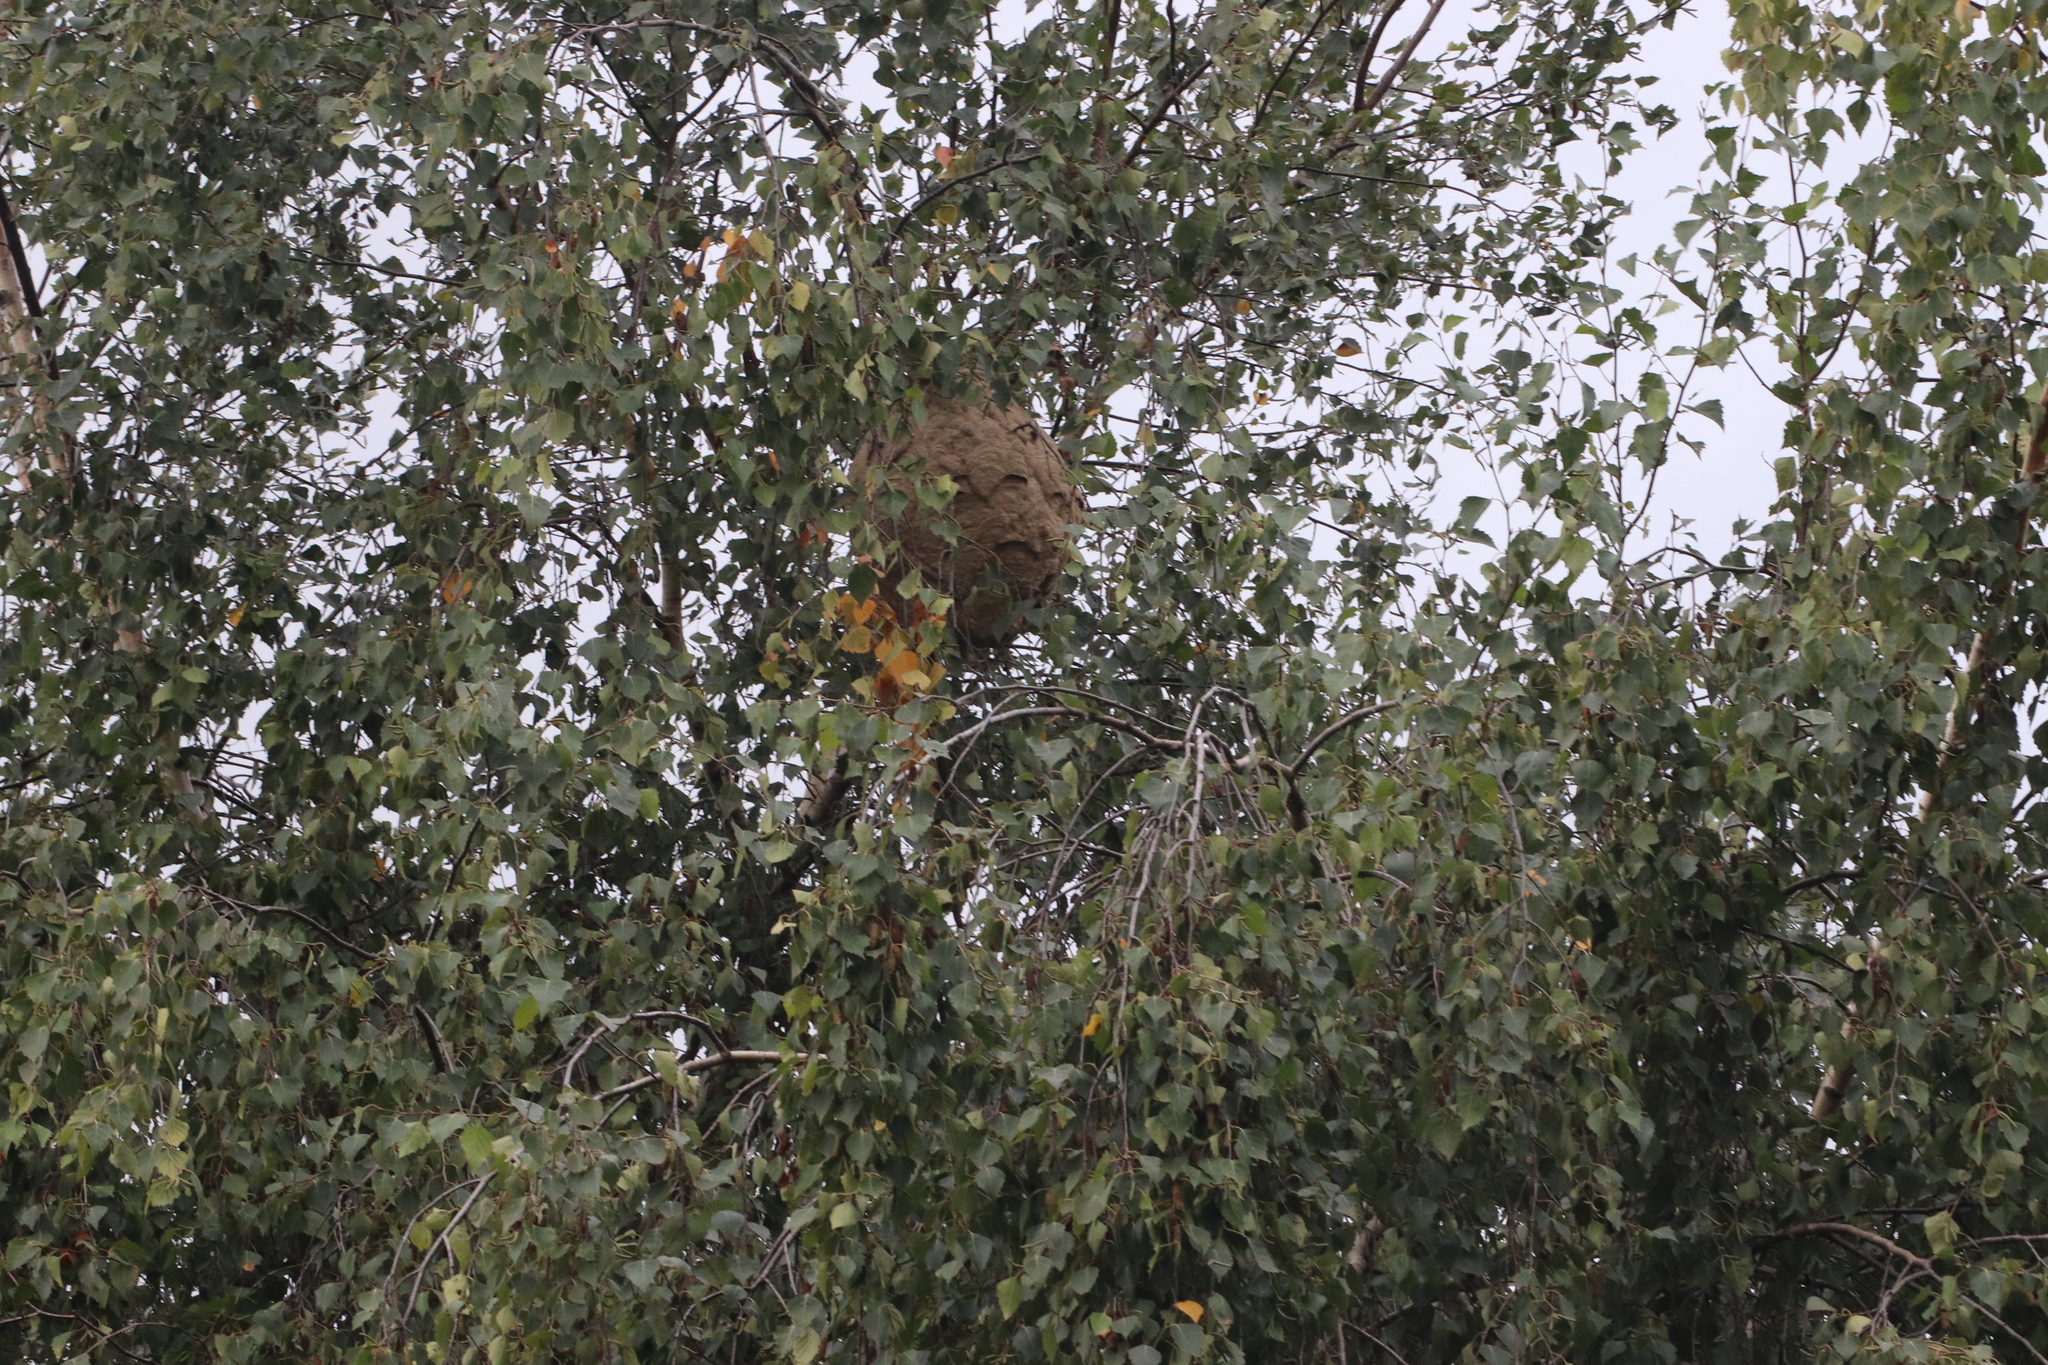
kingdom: Animalia
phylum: Arthropoda
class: Insecta
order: Hymenoptera
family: Vespidae
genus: Vespa
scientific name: Vespa velutina
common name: Asian hornet
